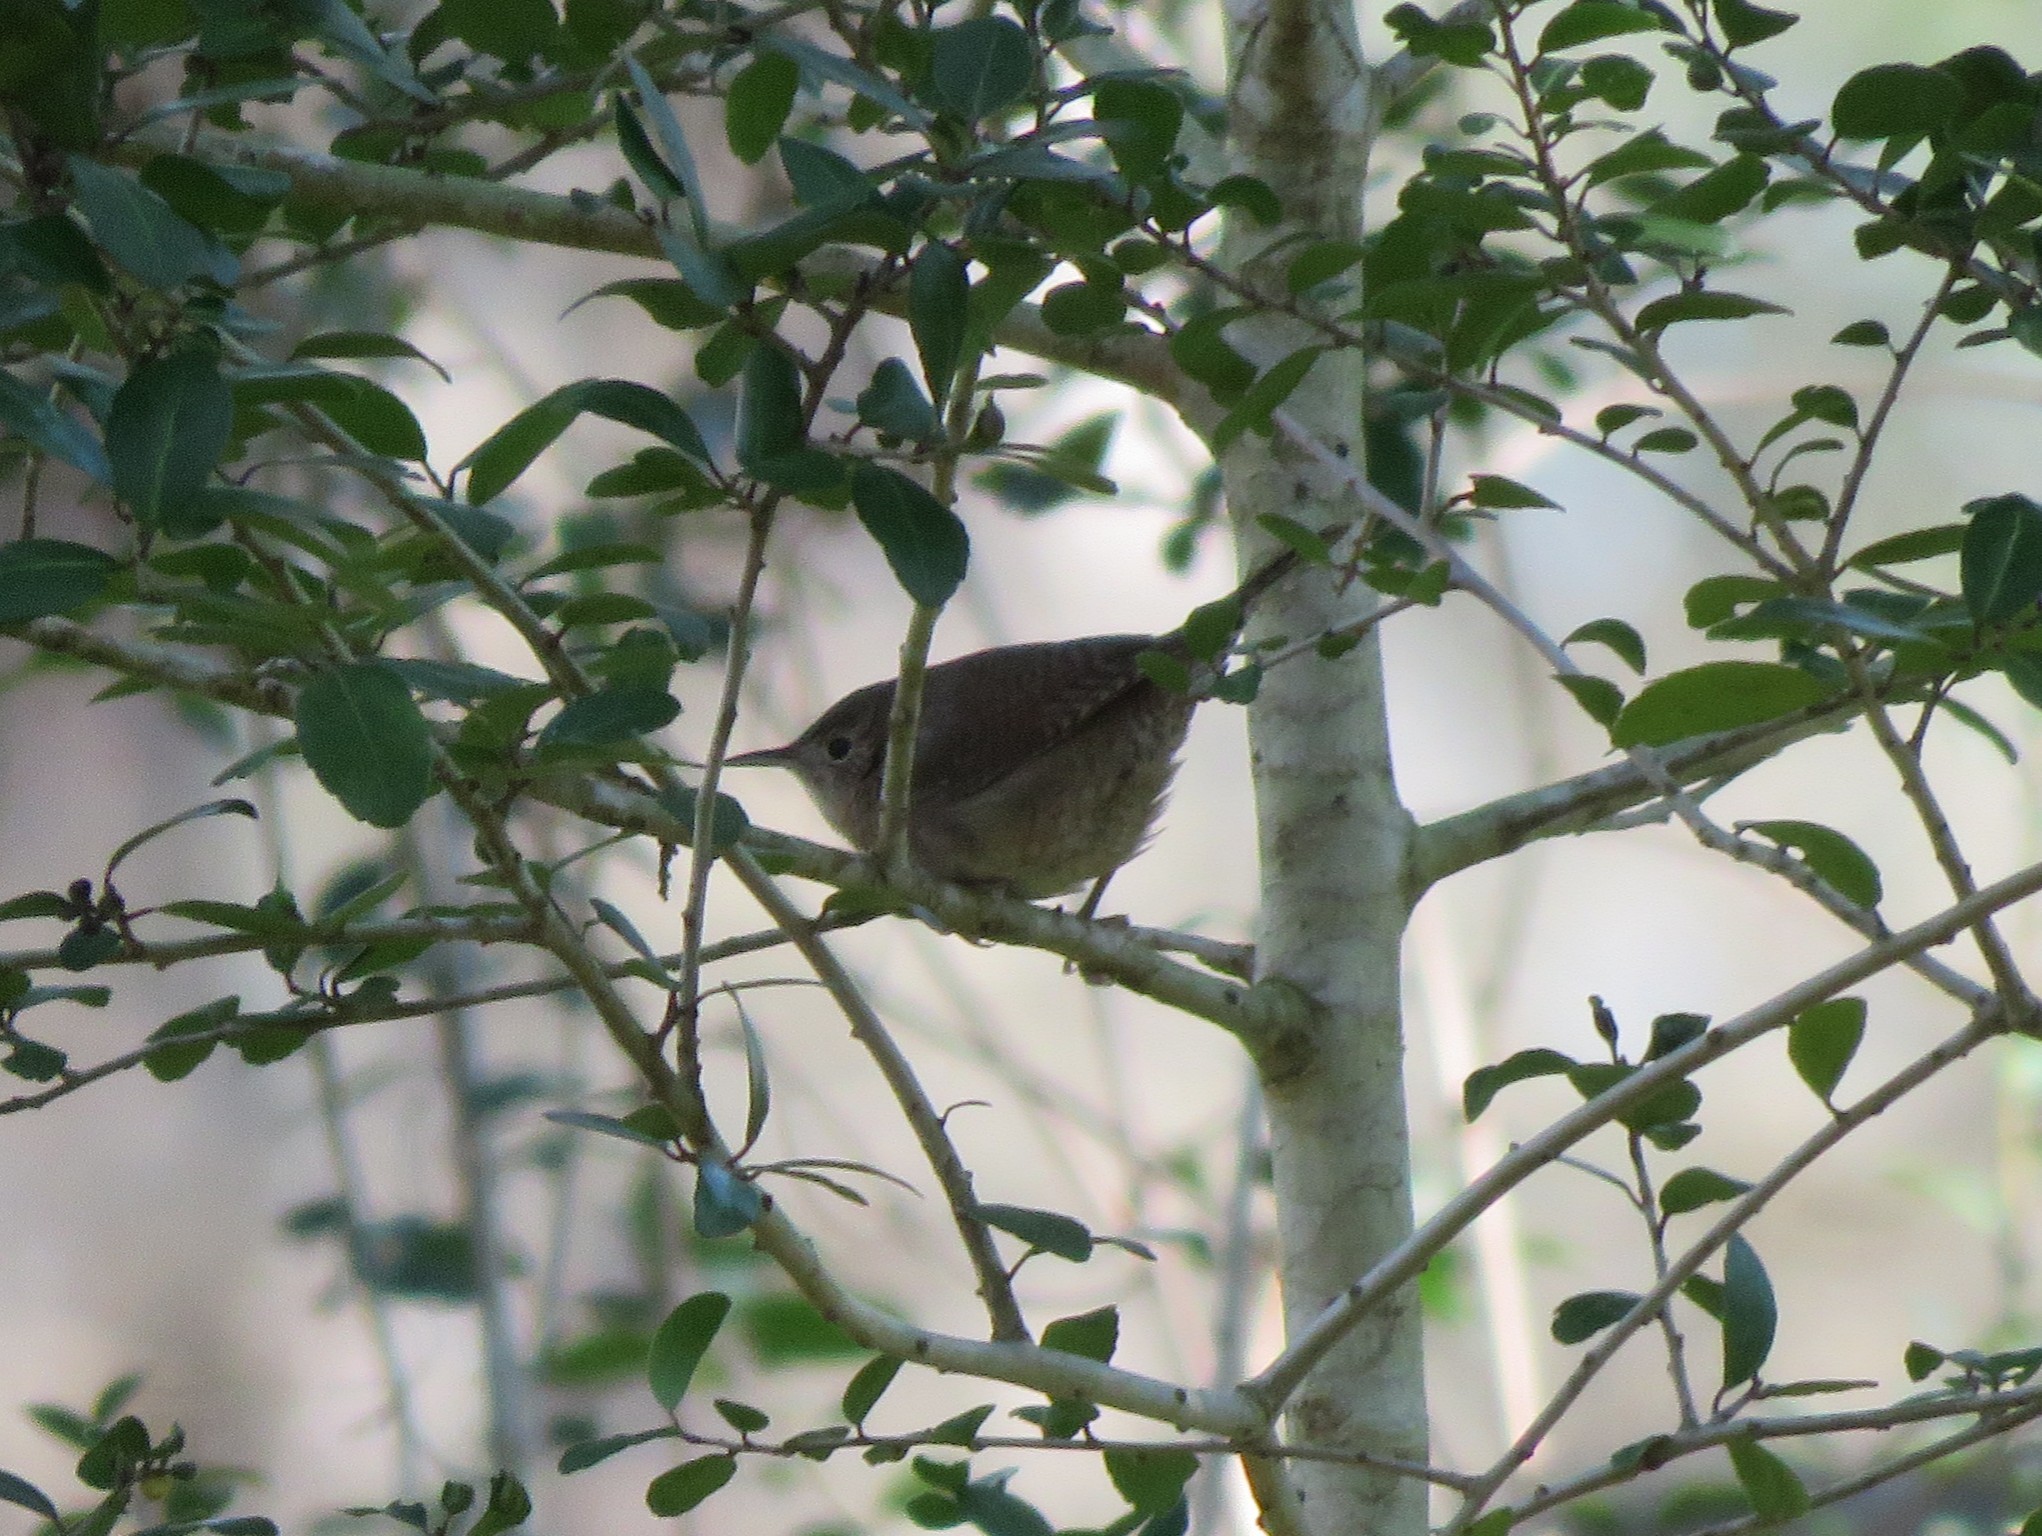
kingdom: Animalia
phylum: Chordata
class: Aves
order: Passeriformes
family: Troglodytidae
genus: Troglodytes
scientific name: Troglodytes aedon
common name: House wren
